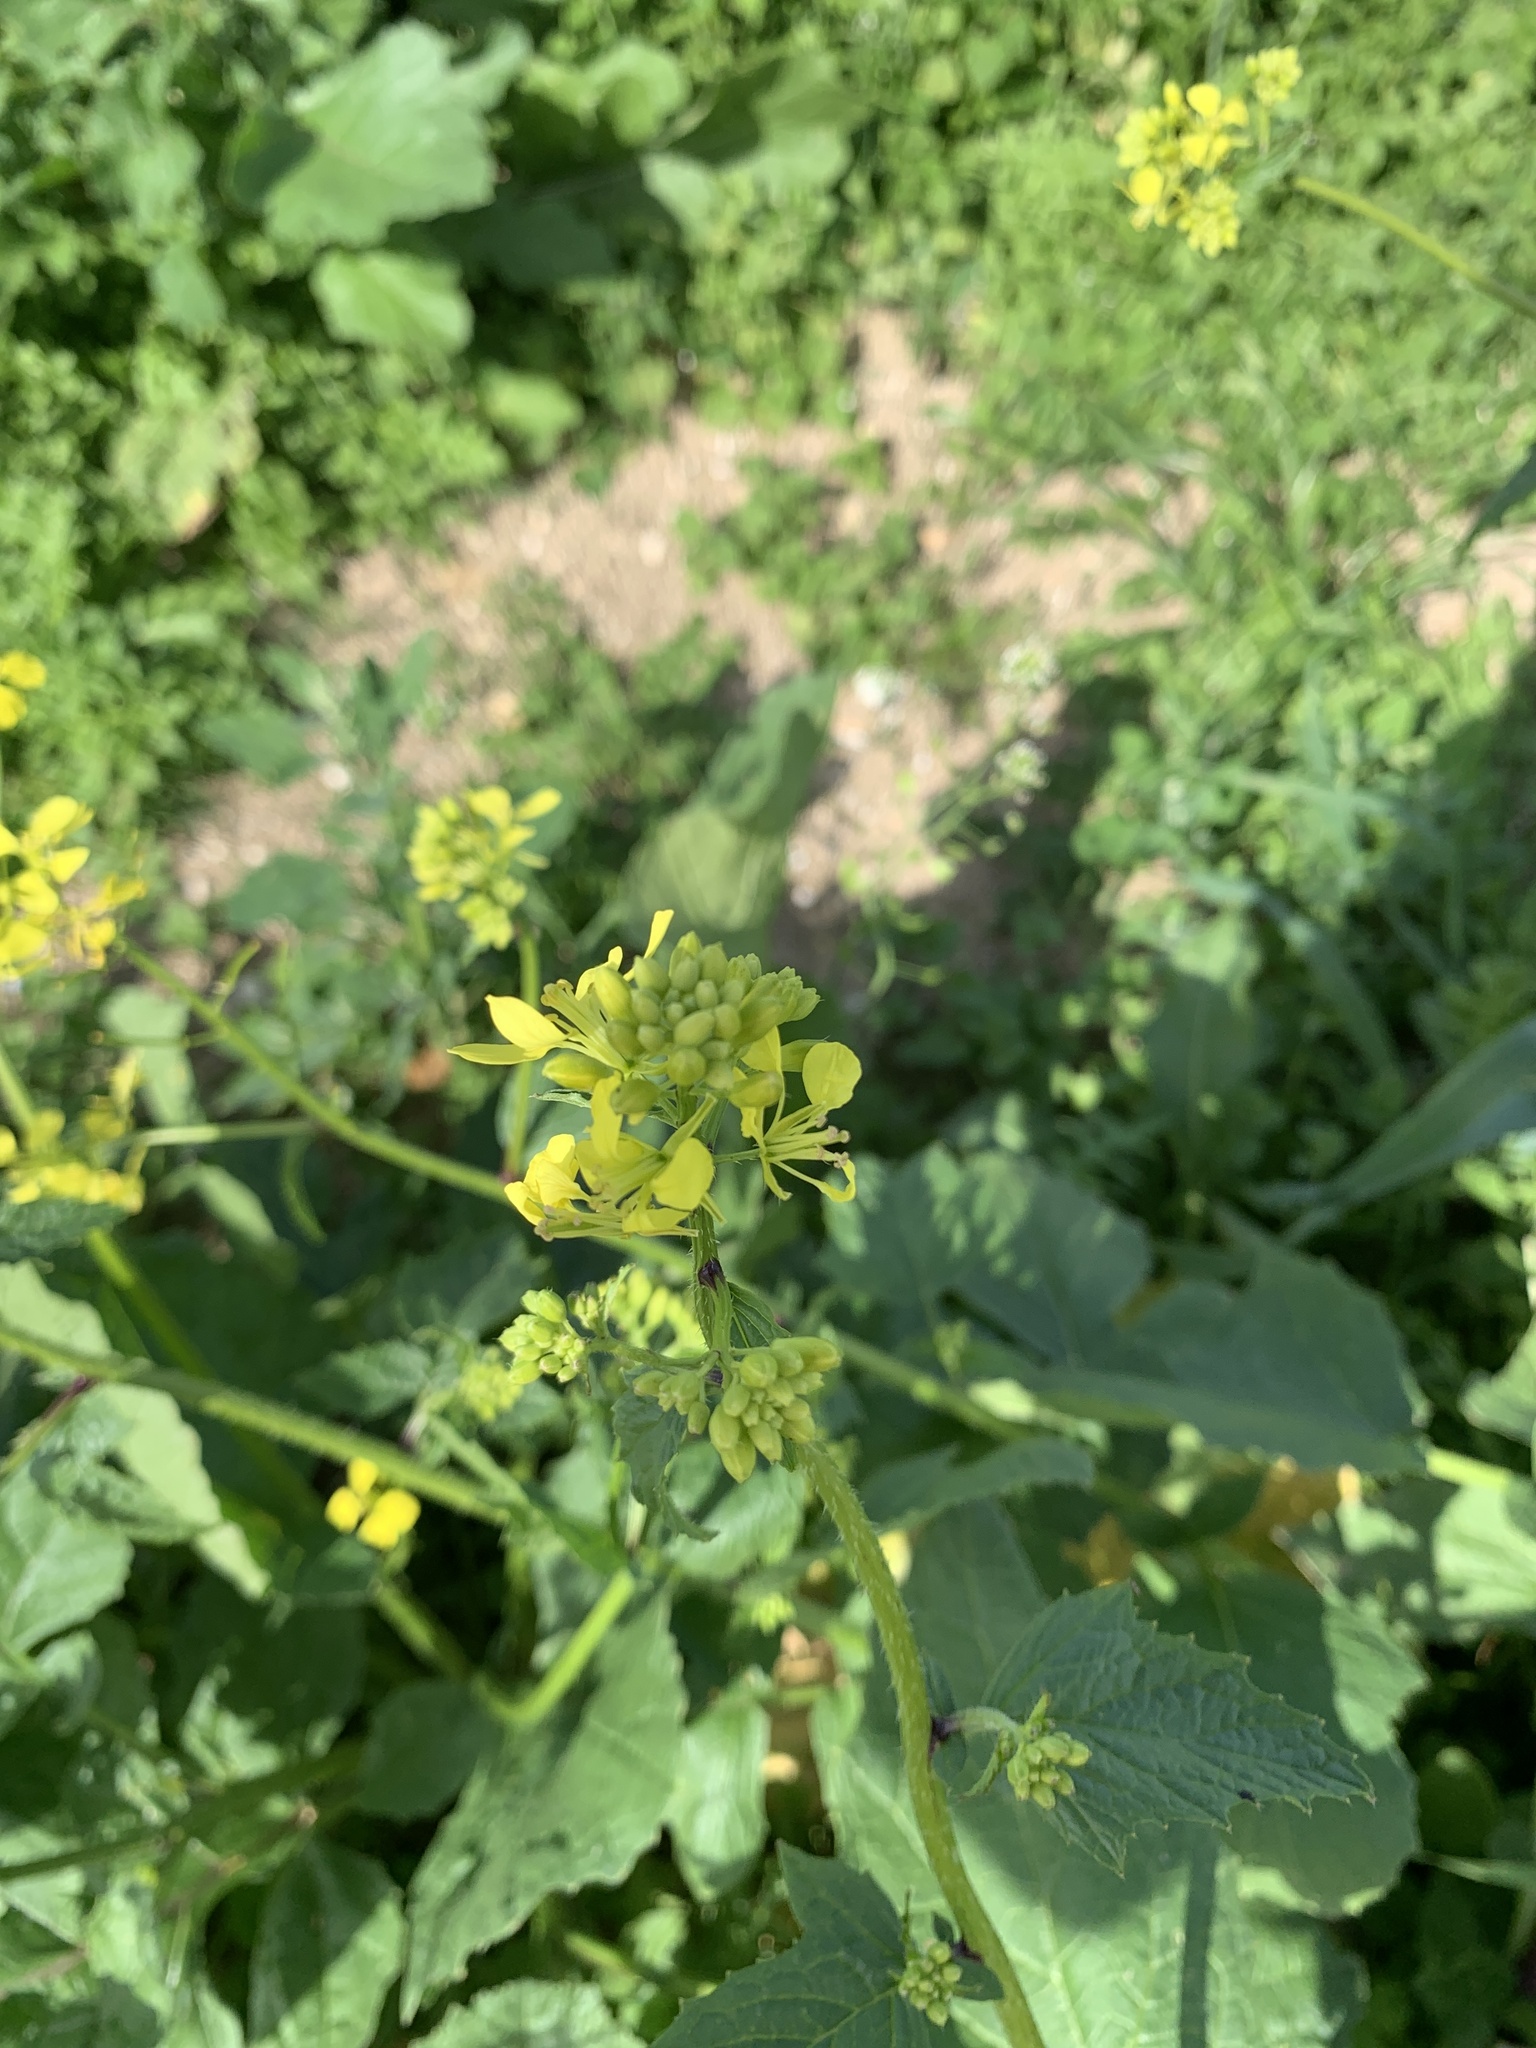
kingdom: Plantae
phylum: Tracheophyta
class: Magnoliopsida
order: Brassicales
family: Brassicaceae
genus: Sinapis
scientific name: Sinapis arvensis
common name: Charlock
